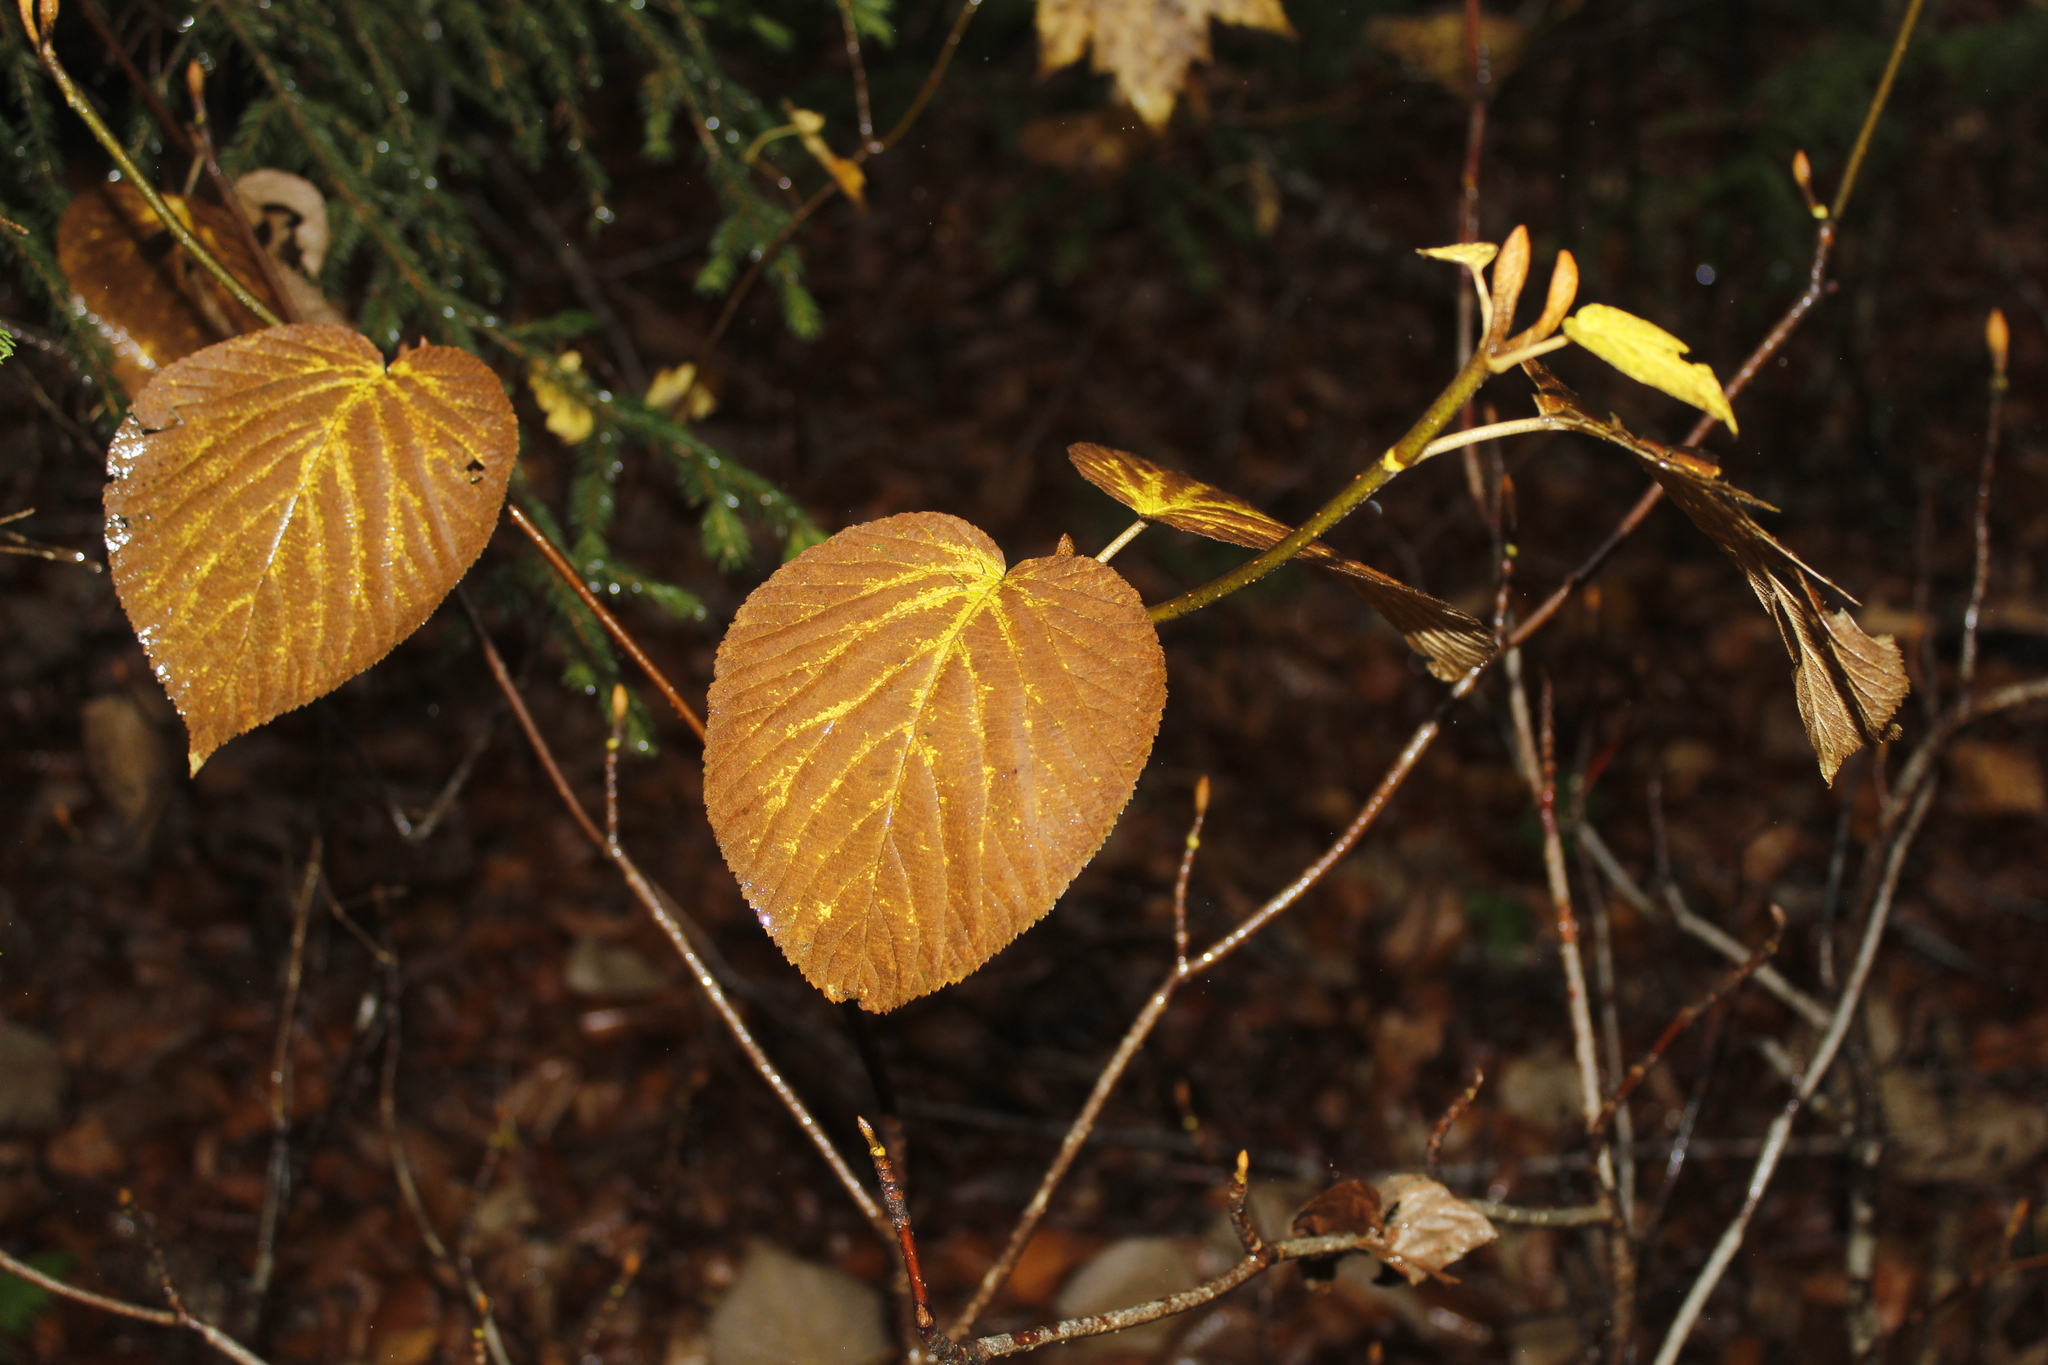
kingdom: Plantae
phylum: Tracheophyta
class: Magnoliopsida
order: Dipsacales
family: Viburnaceae
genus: Viburnum
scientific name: Viburnum lantanoides
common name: Hobblebush
